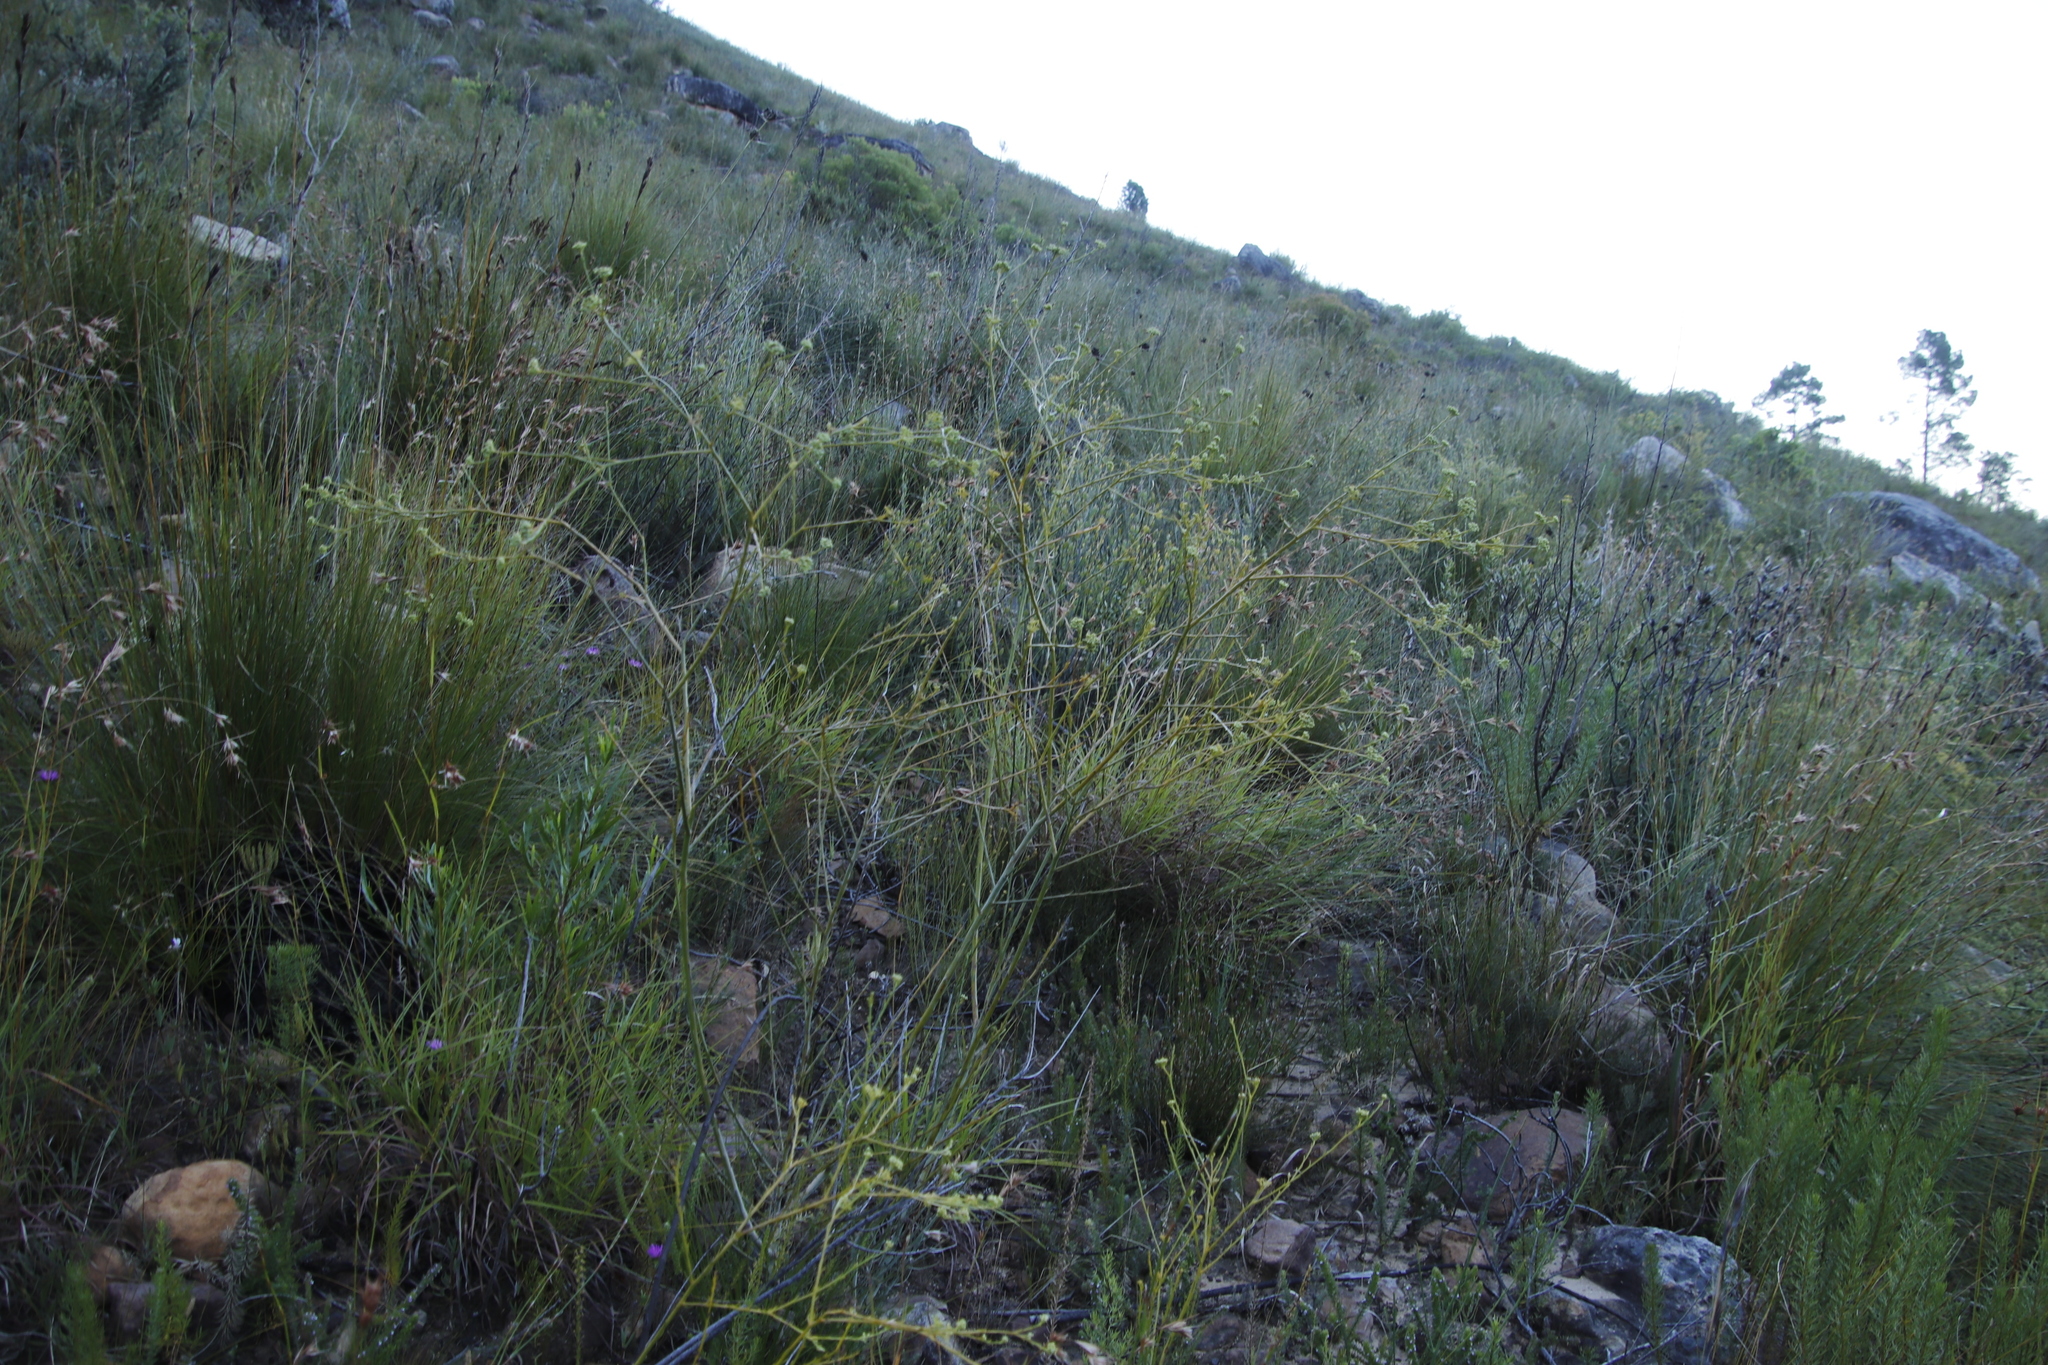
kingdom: Plantae
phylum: Tracheophyta
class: Magnoliopsida
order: Santalales
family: Thesiaceae
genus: Thesium
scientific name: Thesium strictum
